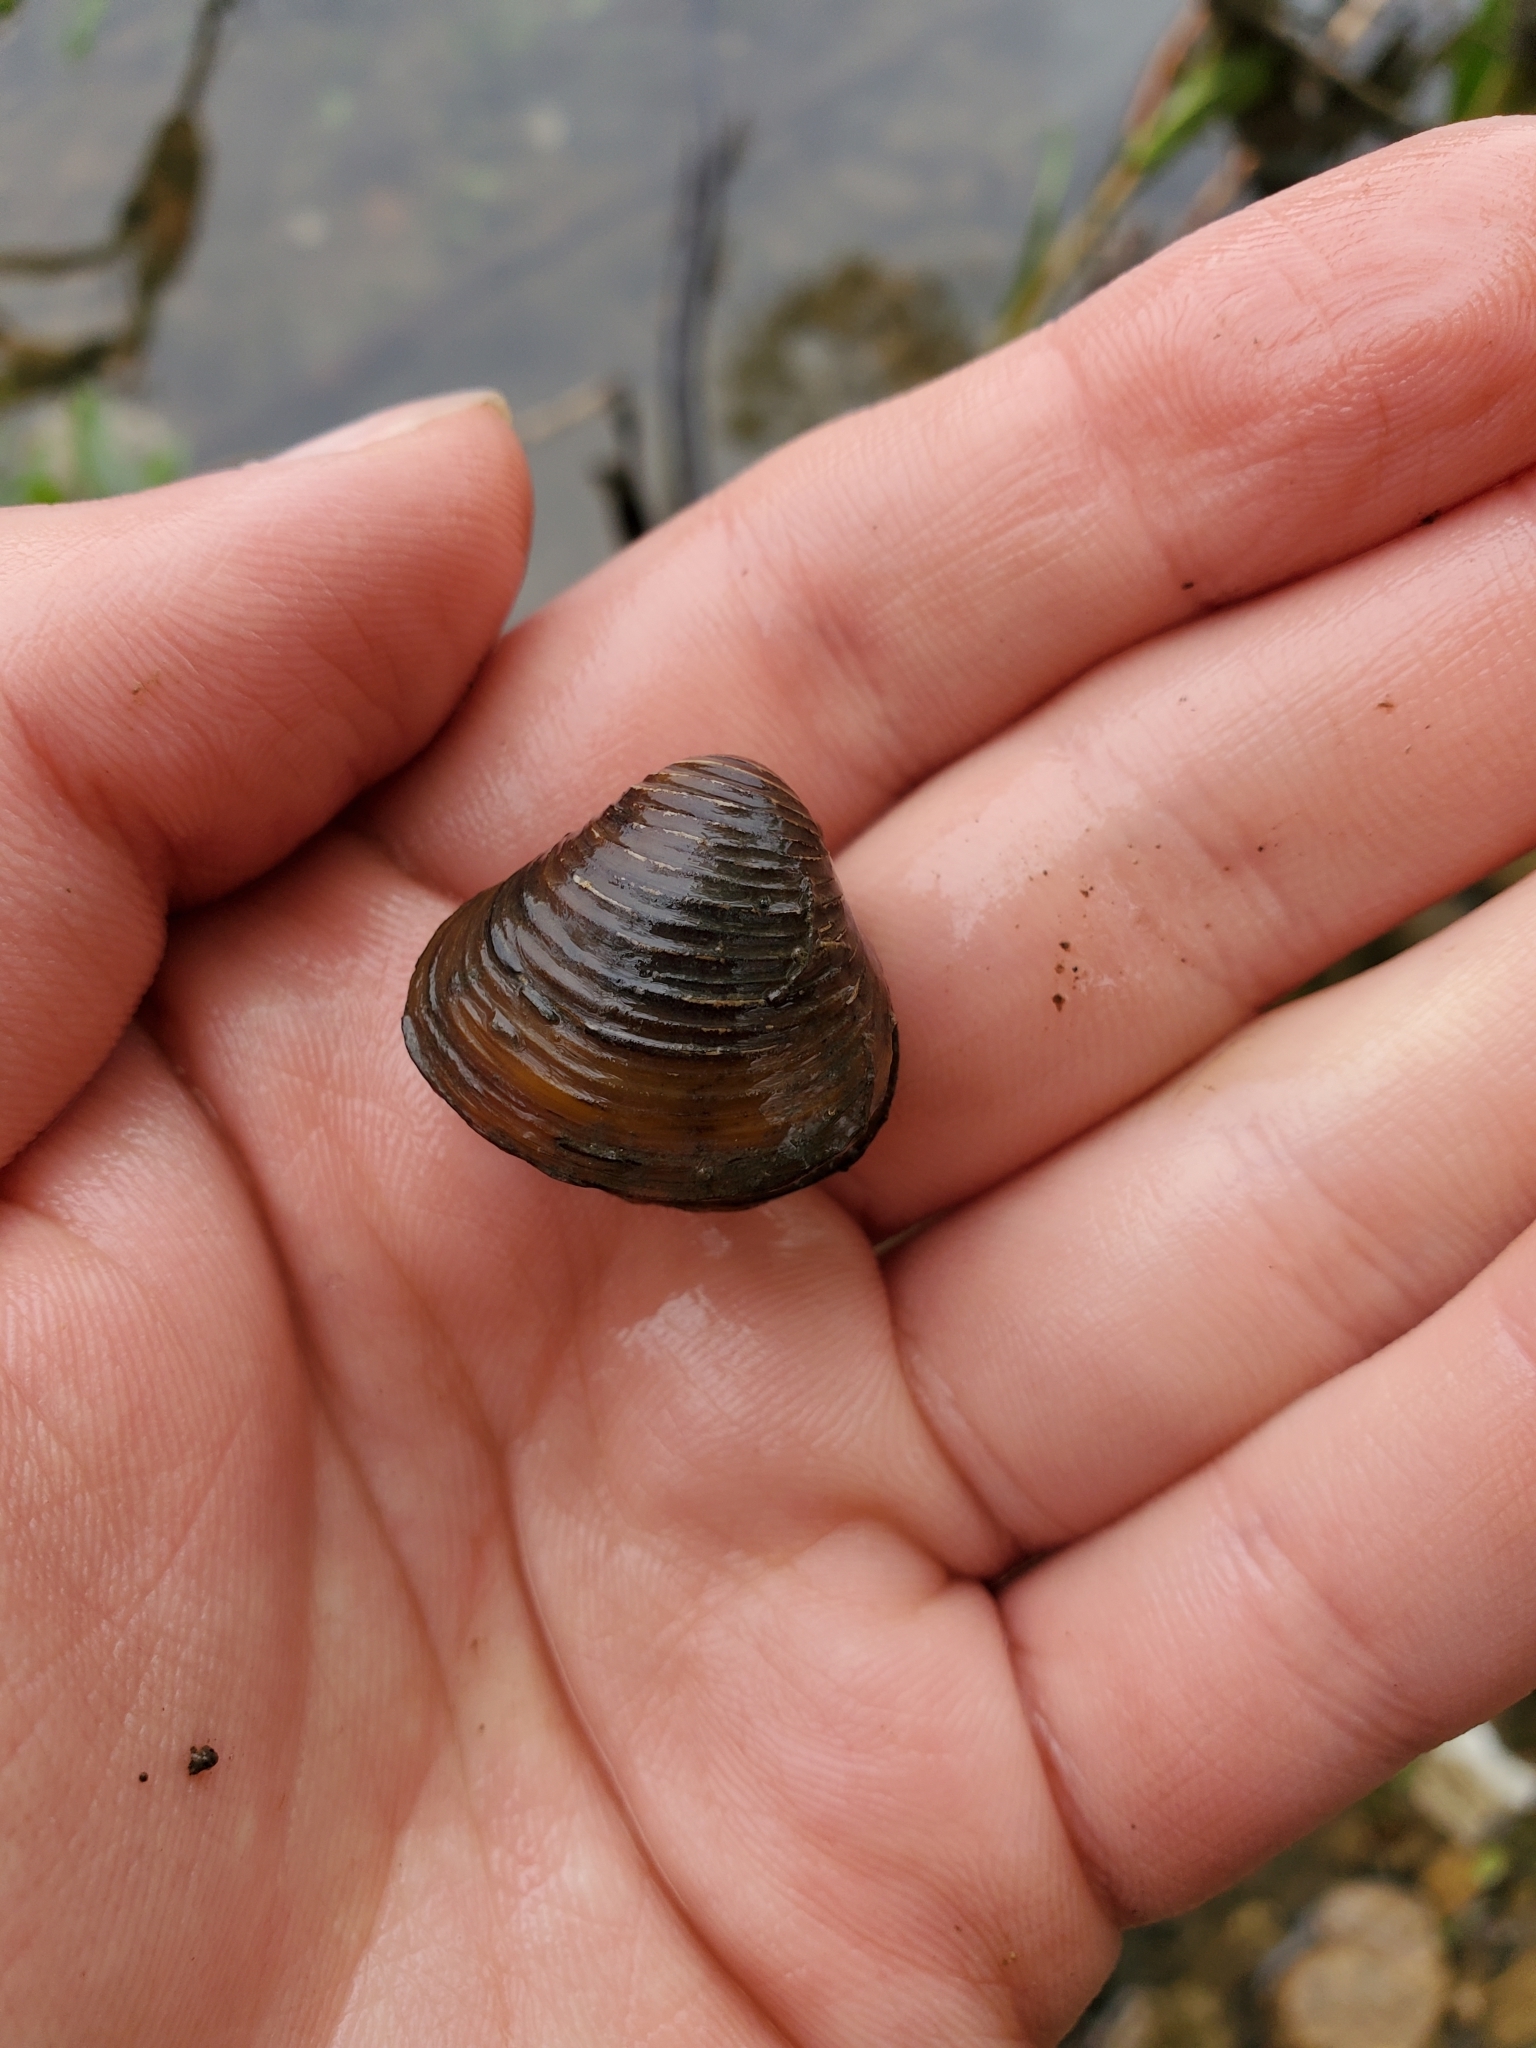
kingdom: Animalia
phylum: Mollusca
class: Bivalvia
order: Venerida
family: Cyrenidae
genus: Corbicula
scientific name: Corbicula fluminea
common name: Asian clam
